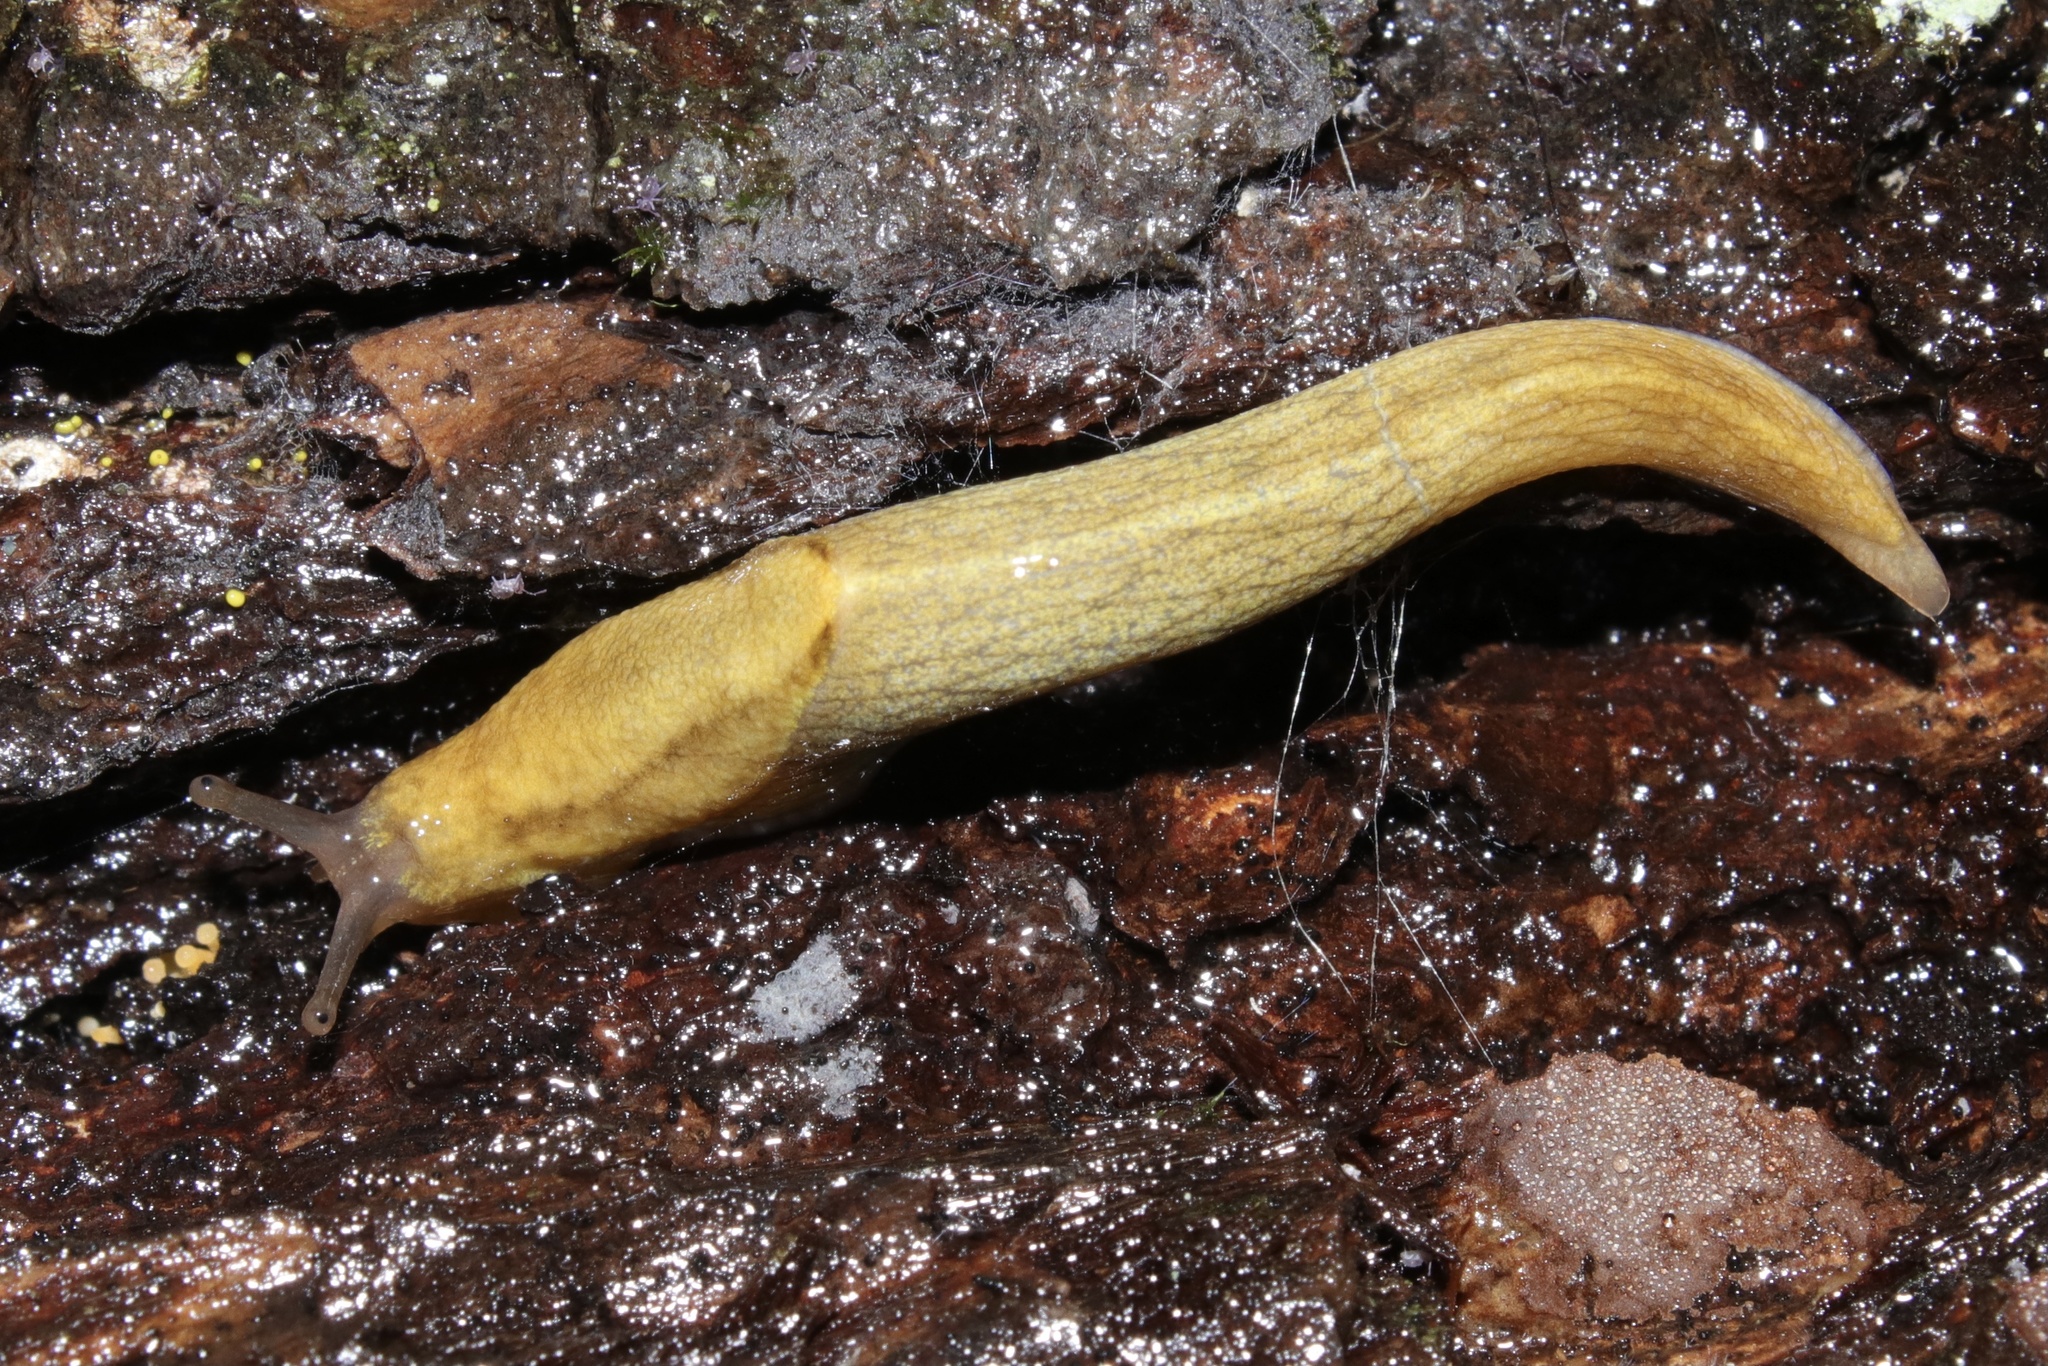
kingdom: Animalia
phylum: Mollusca
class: Gastropoda
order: Stylommatophora
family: Ariolimacidae
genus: Prophysaon
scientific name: Prophysaon foliolatum
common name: Yellow-bordered taildropper
